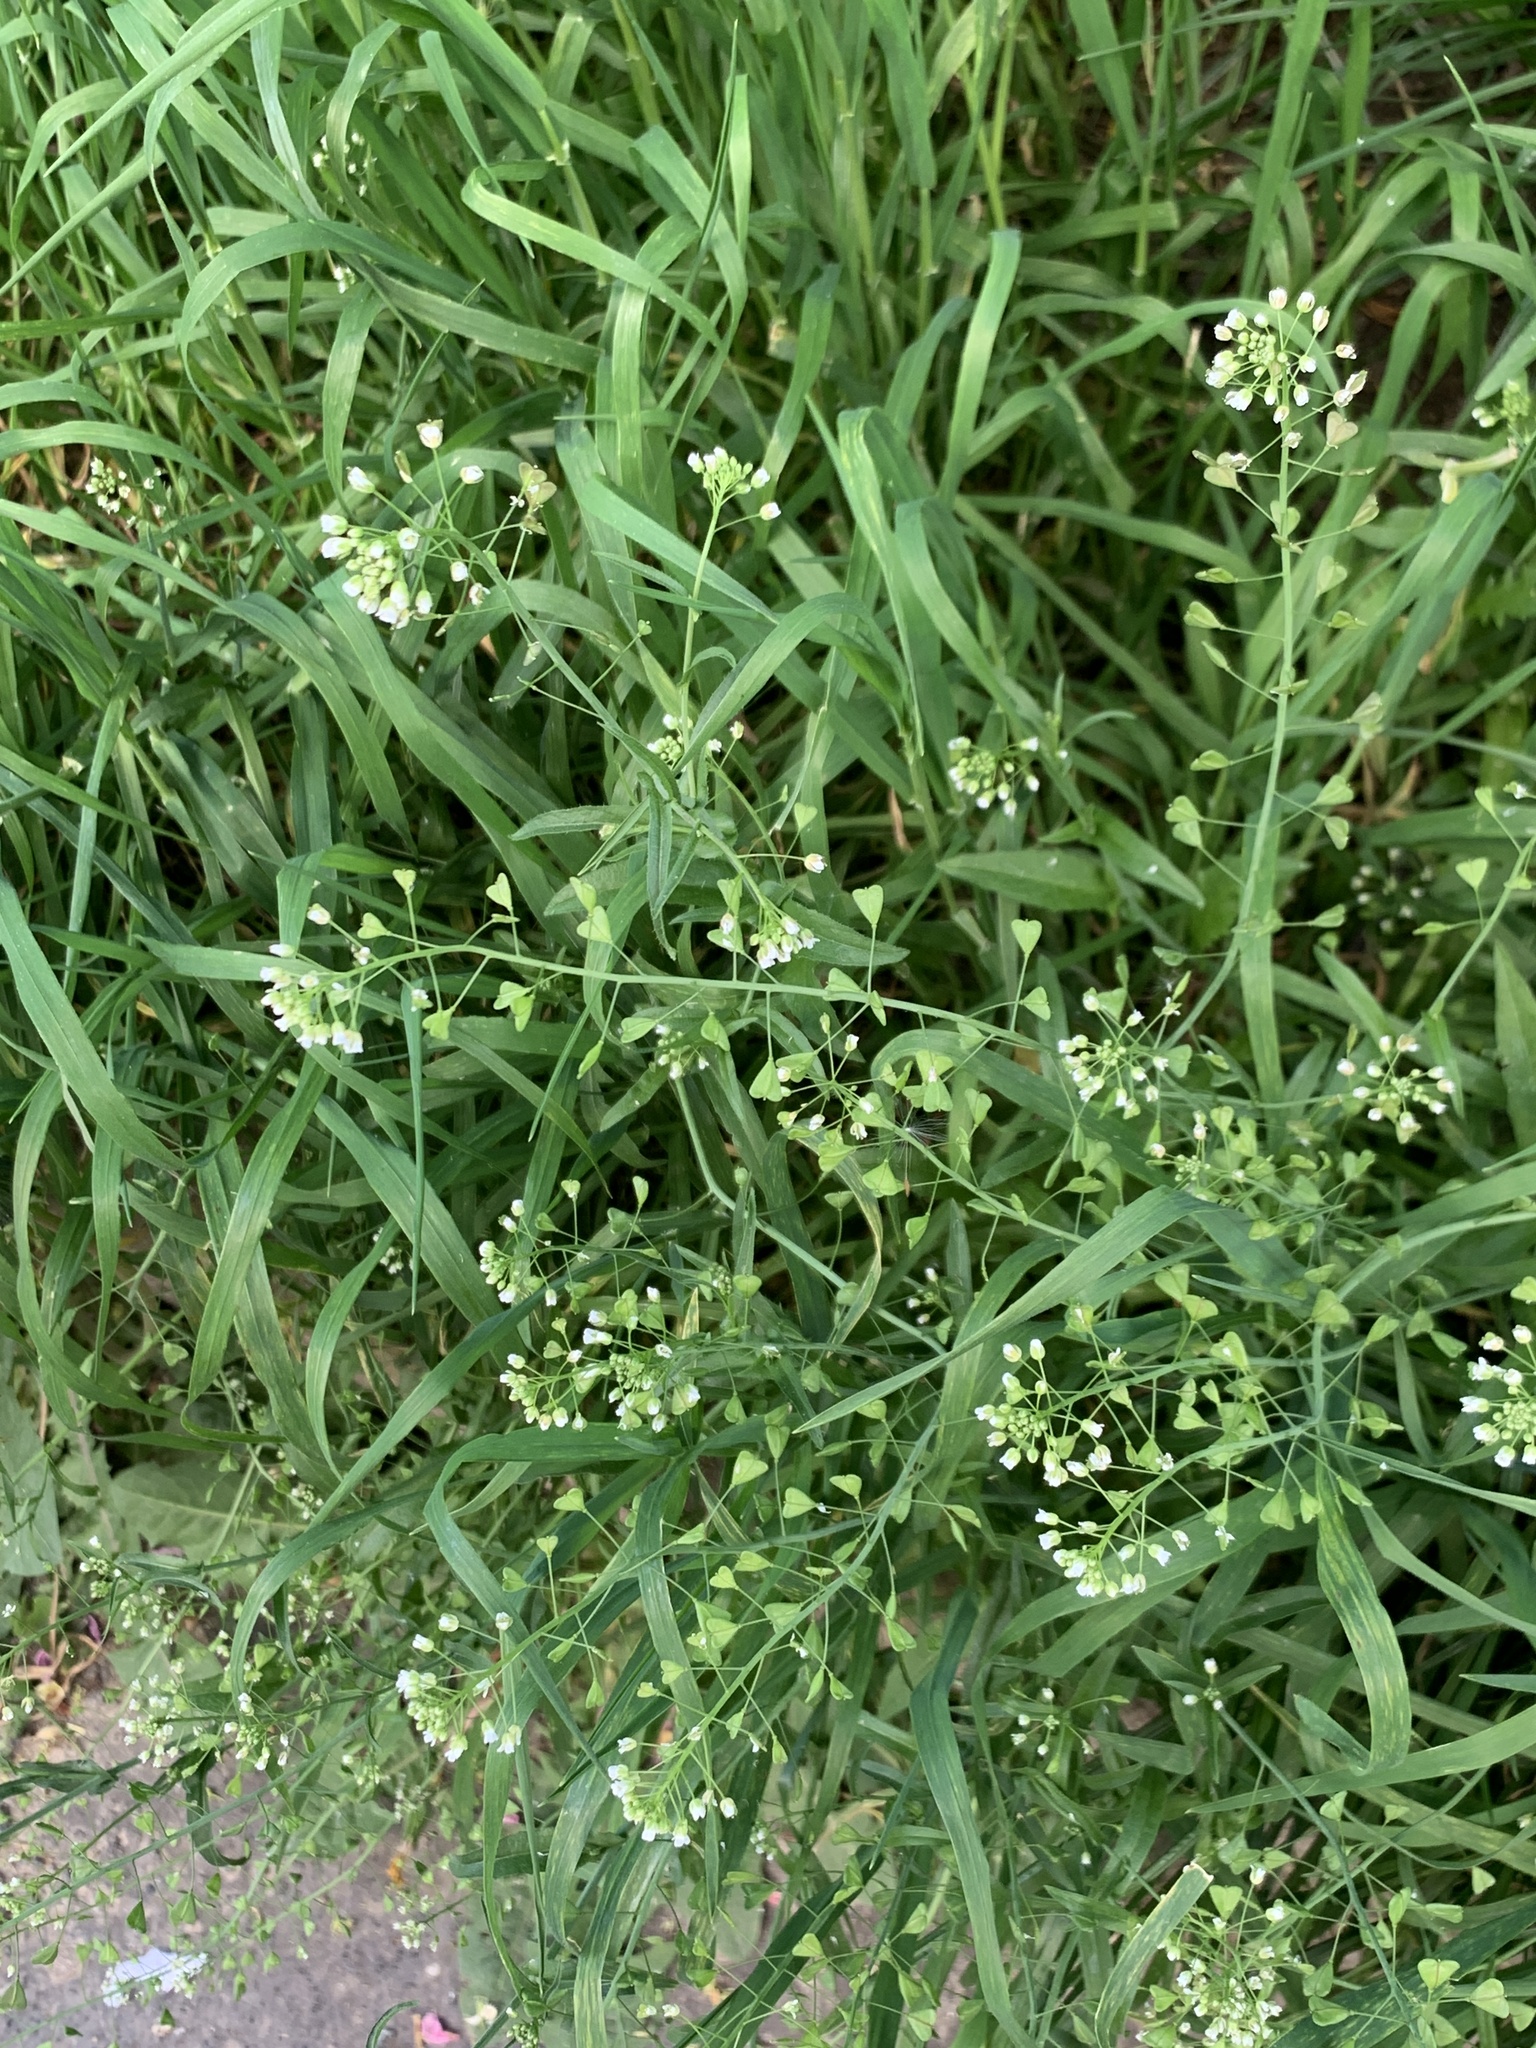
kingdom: Plantae
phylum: Tracheophyta
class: Magnoliopsida
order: Brassicales
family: Brassicaceae
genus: Capsella
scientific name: Capsella bursa-pastoris
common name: Shepherd's purse
